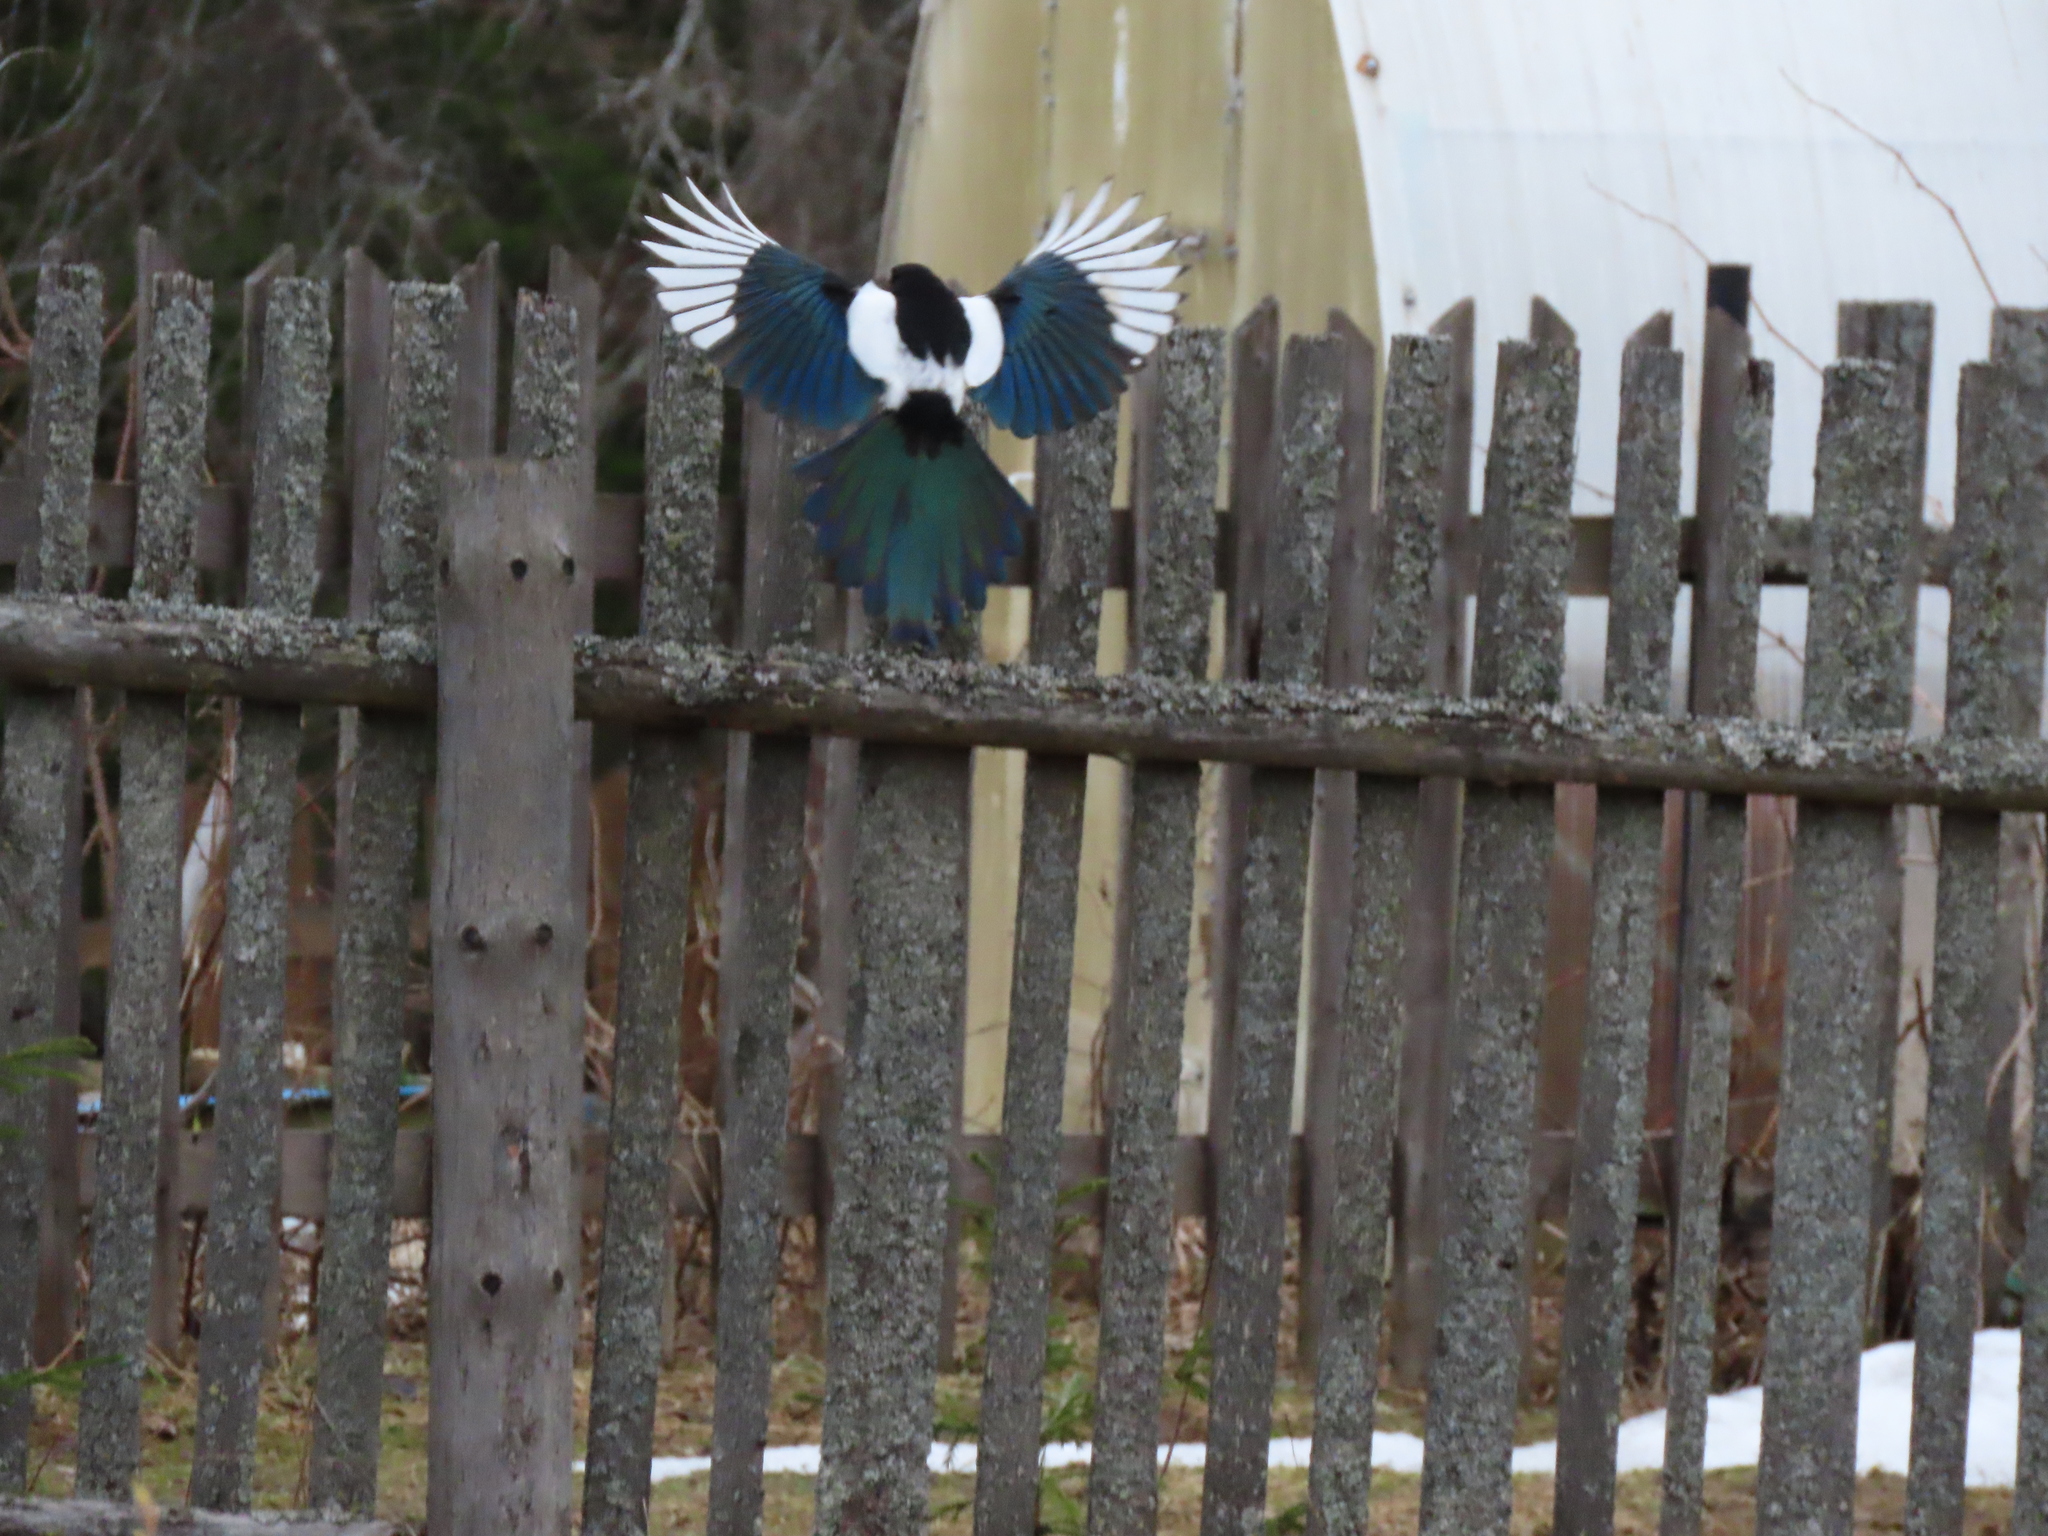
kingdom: Animalia
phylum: Chordata
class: Aves
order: Passeriformes
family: Corvidae
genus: Pica
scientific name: Pica pica
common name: Eurasian magpie
